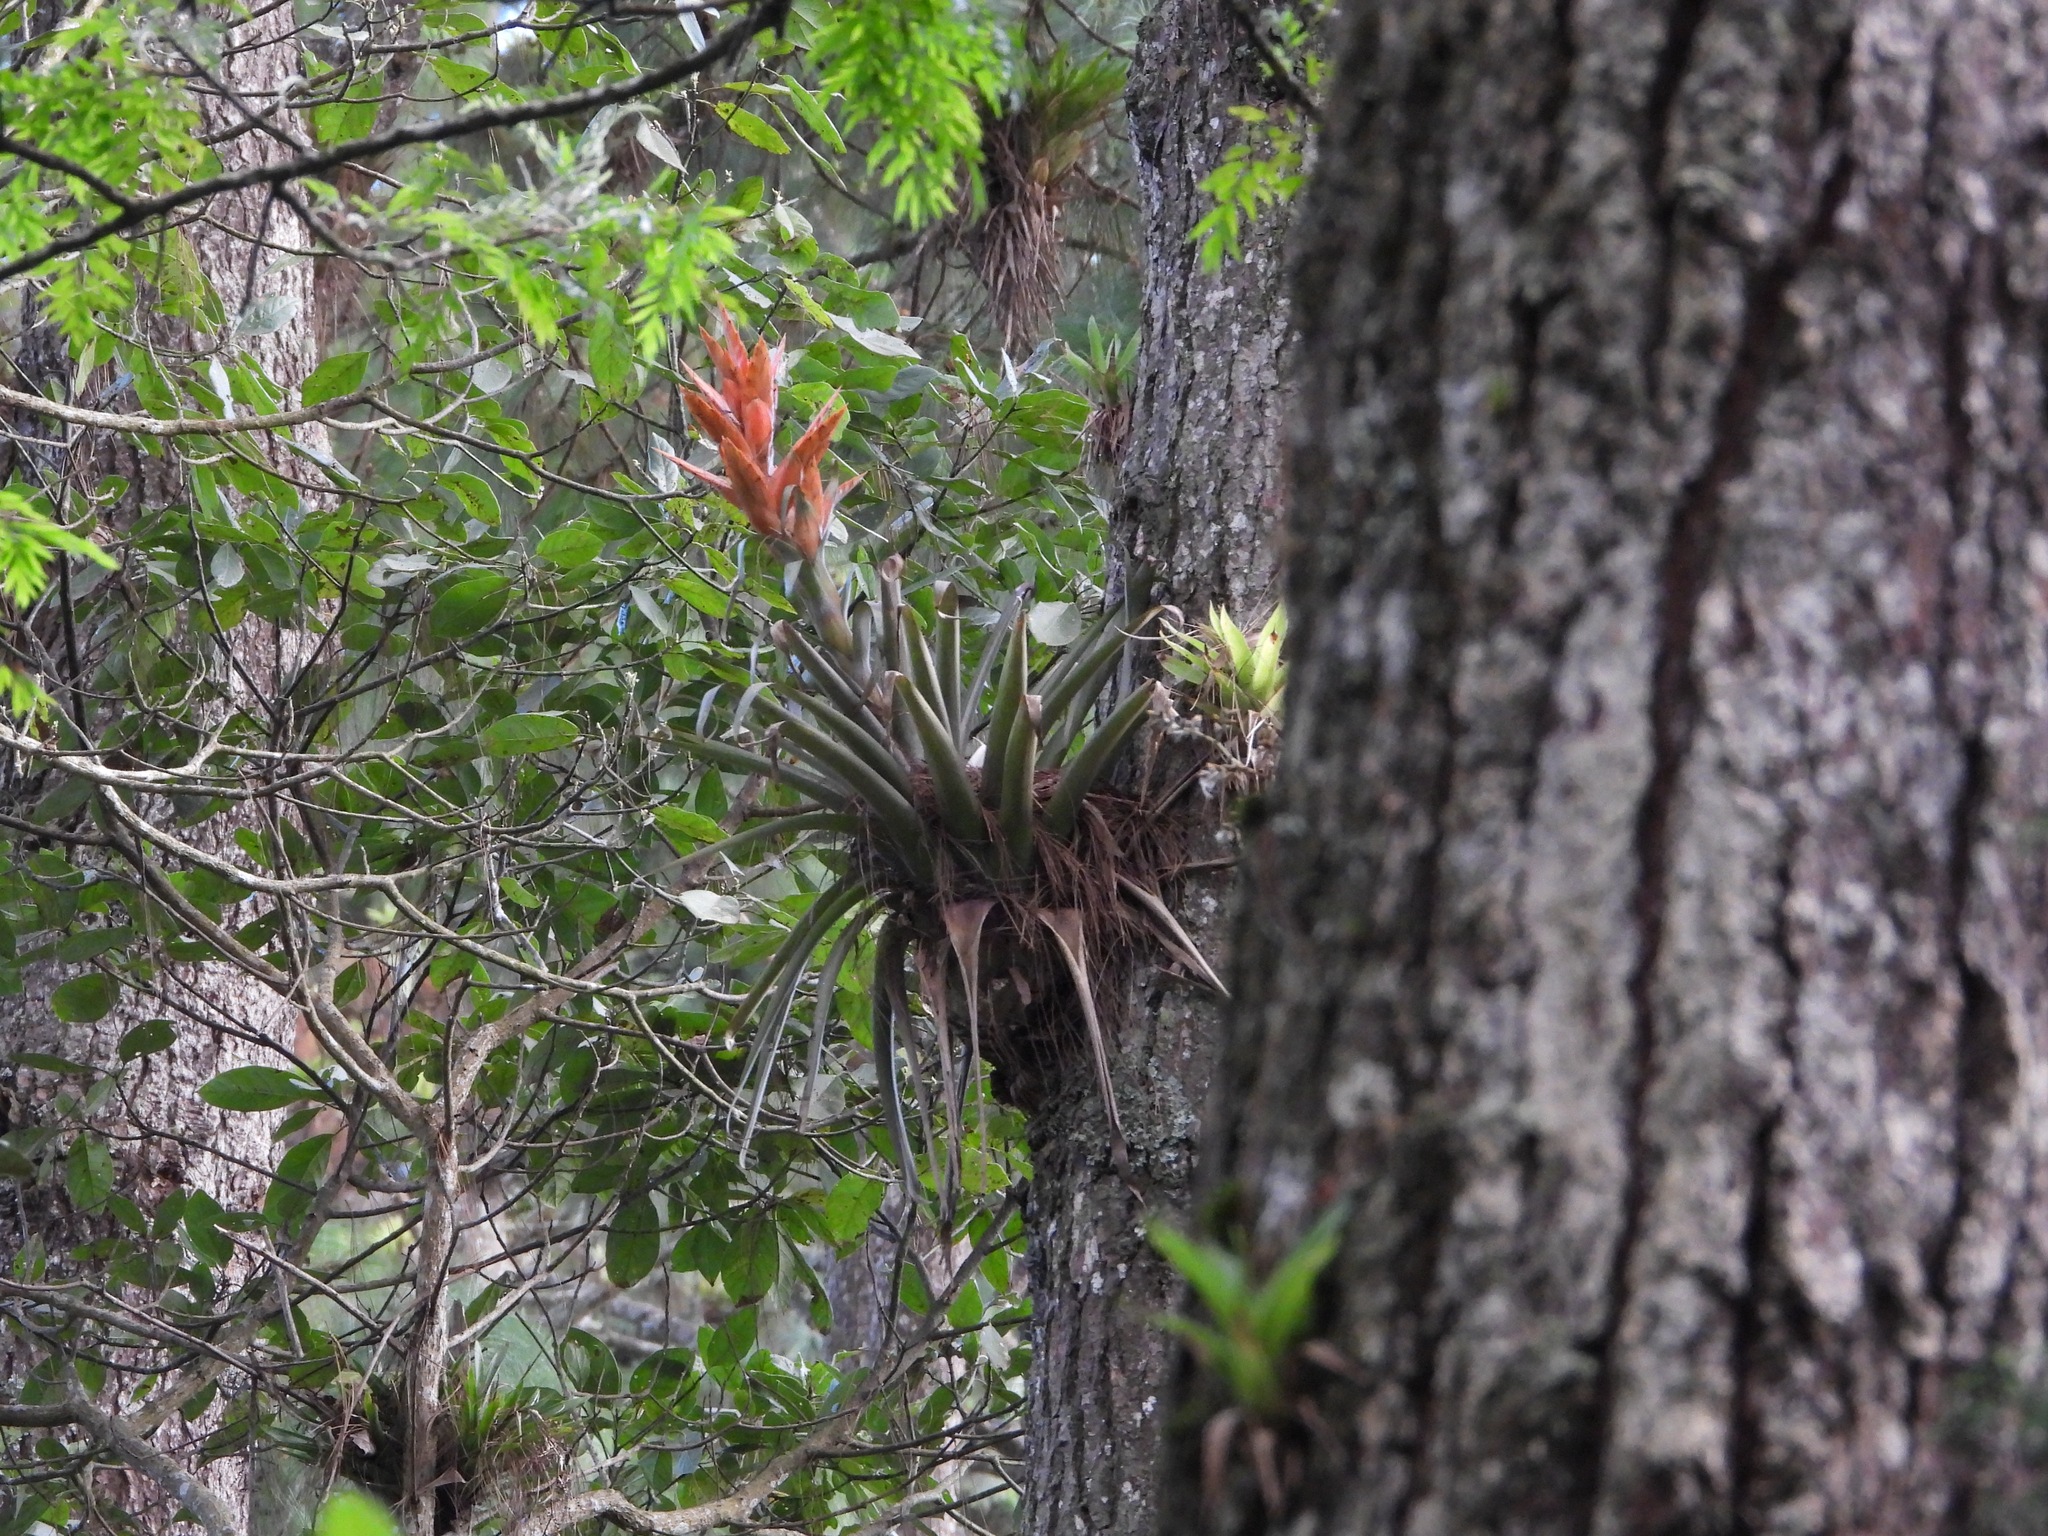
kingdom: Plantae
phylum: Tracheophyta
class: Liliopsida
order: Poales
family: Bromeliaceae
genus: Tillandsia
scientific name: Tillandsia ponderosa
